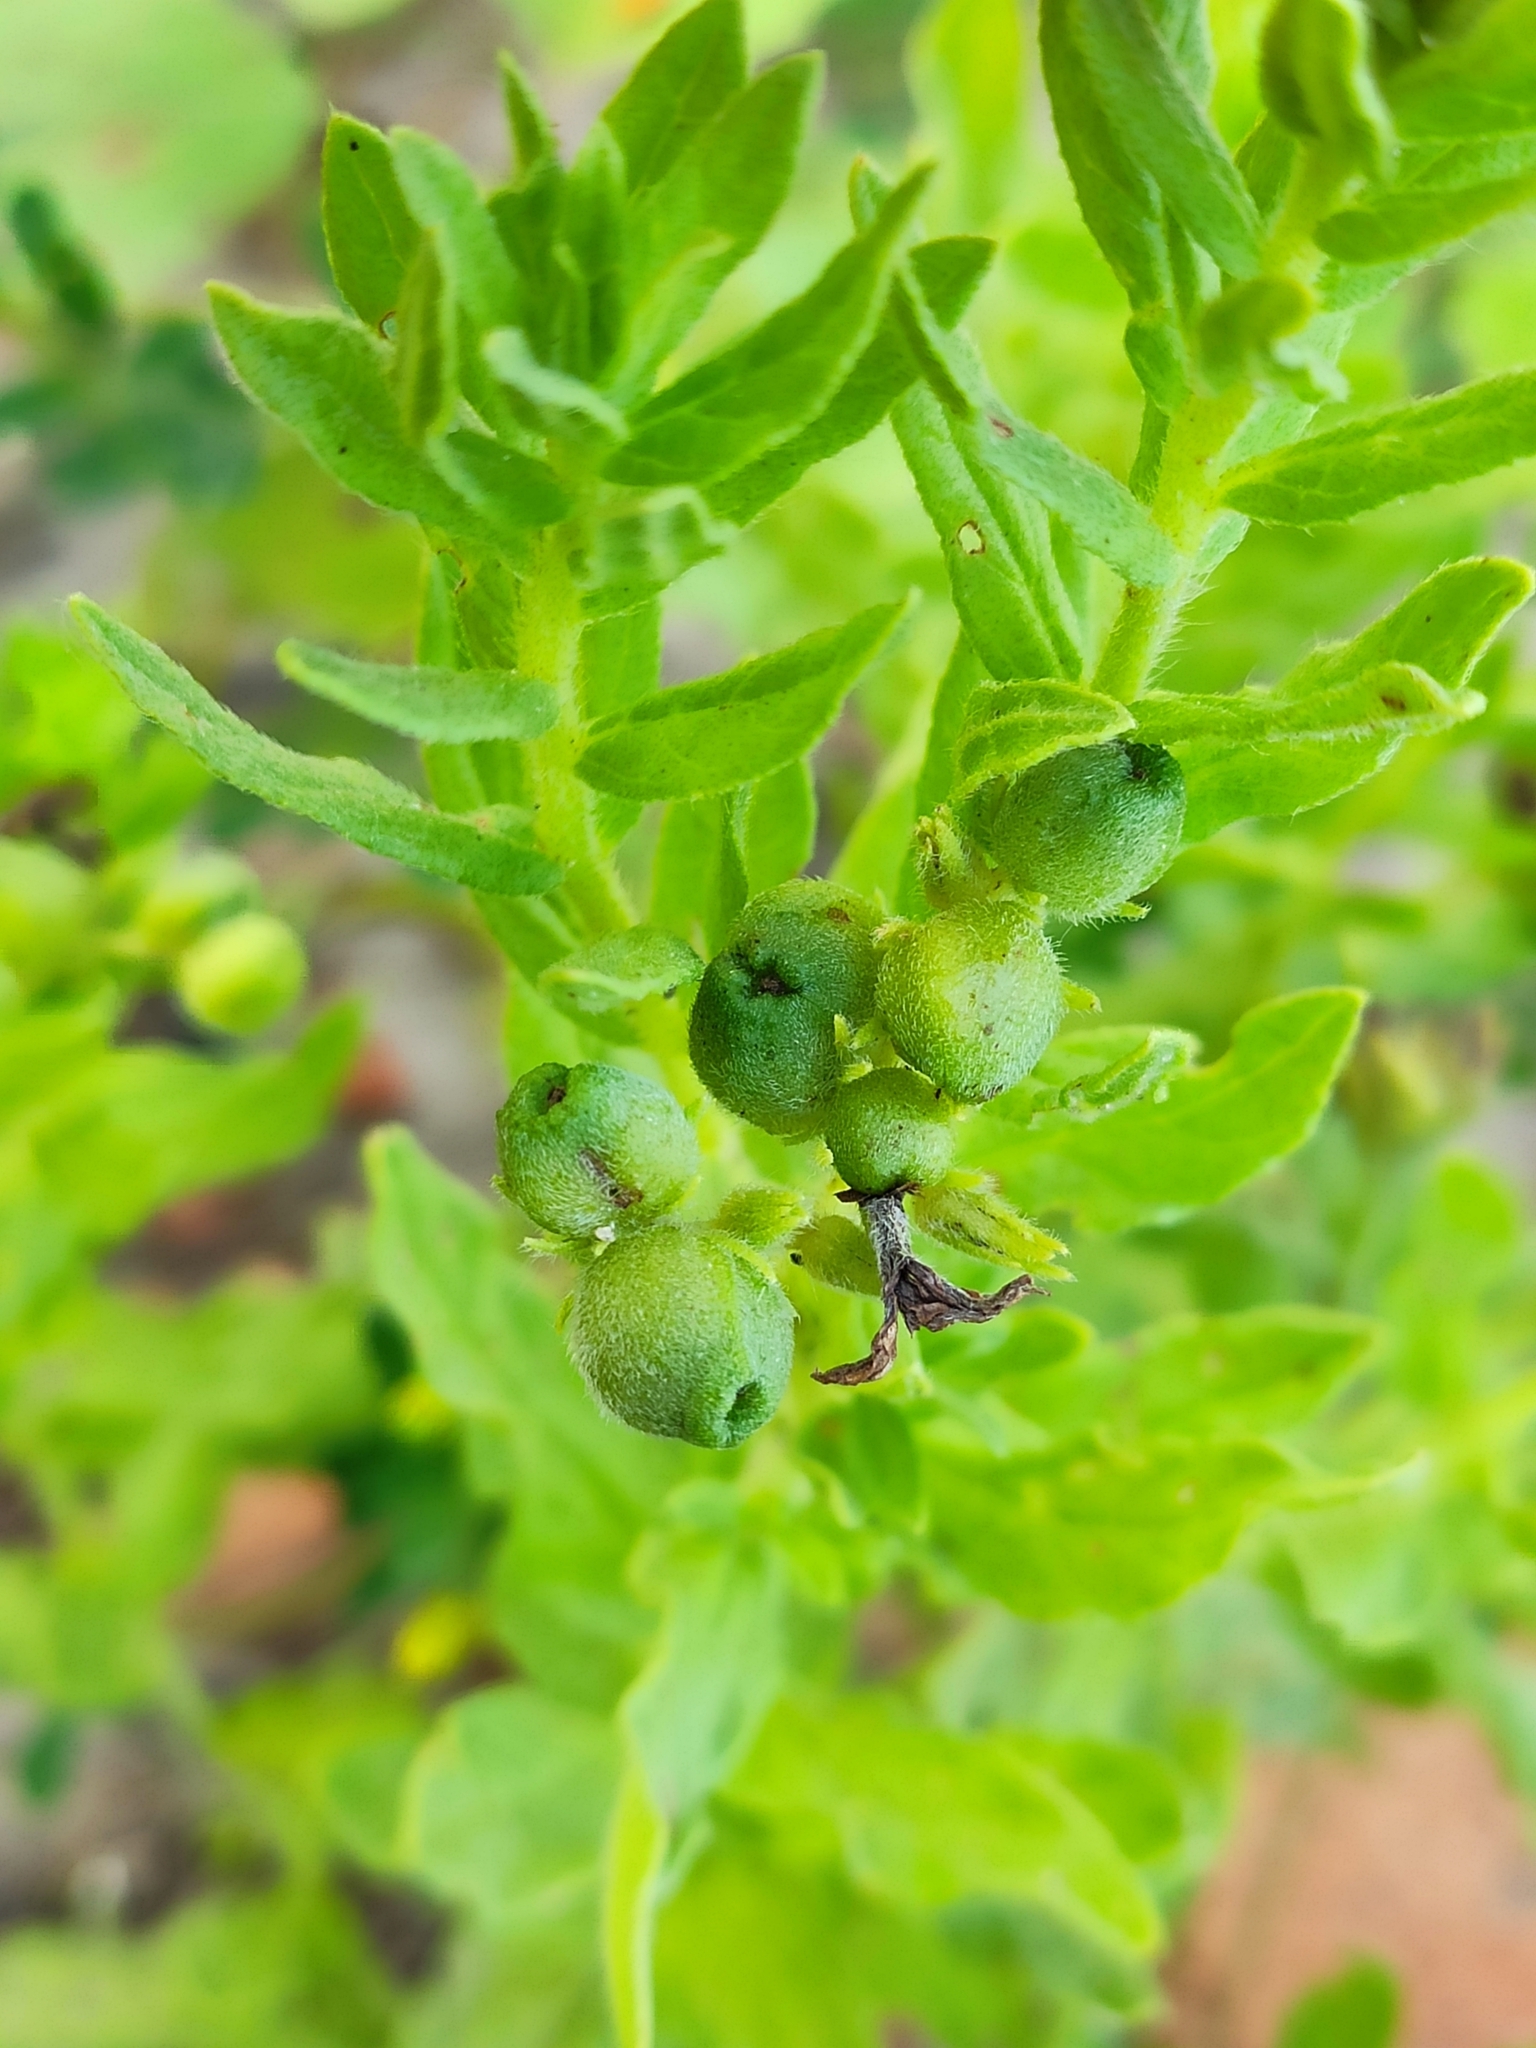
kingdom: Plantae
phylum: Tracheophyta
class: Magnoliopsida
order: Boraginales
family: Heliotropiaceae
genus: Tournefortia
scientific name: Tournefortia sibirica
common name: Siberian sea rosemary
